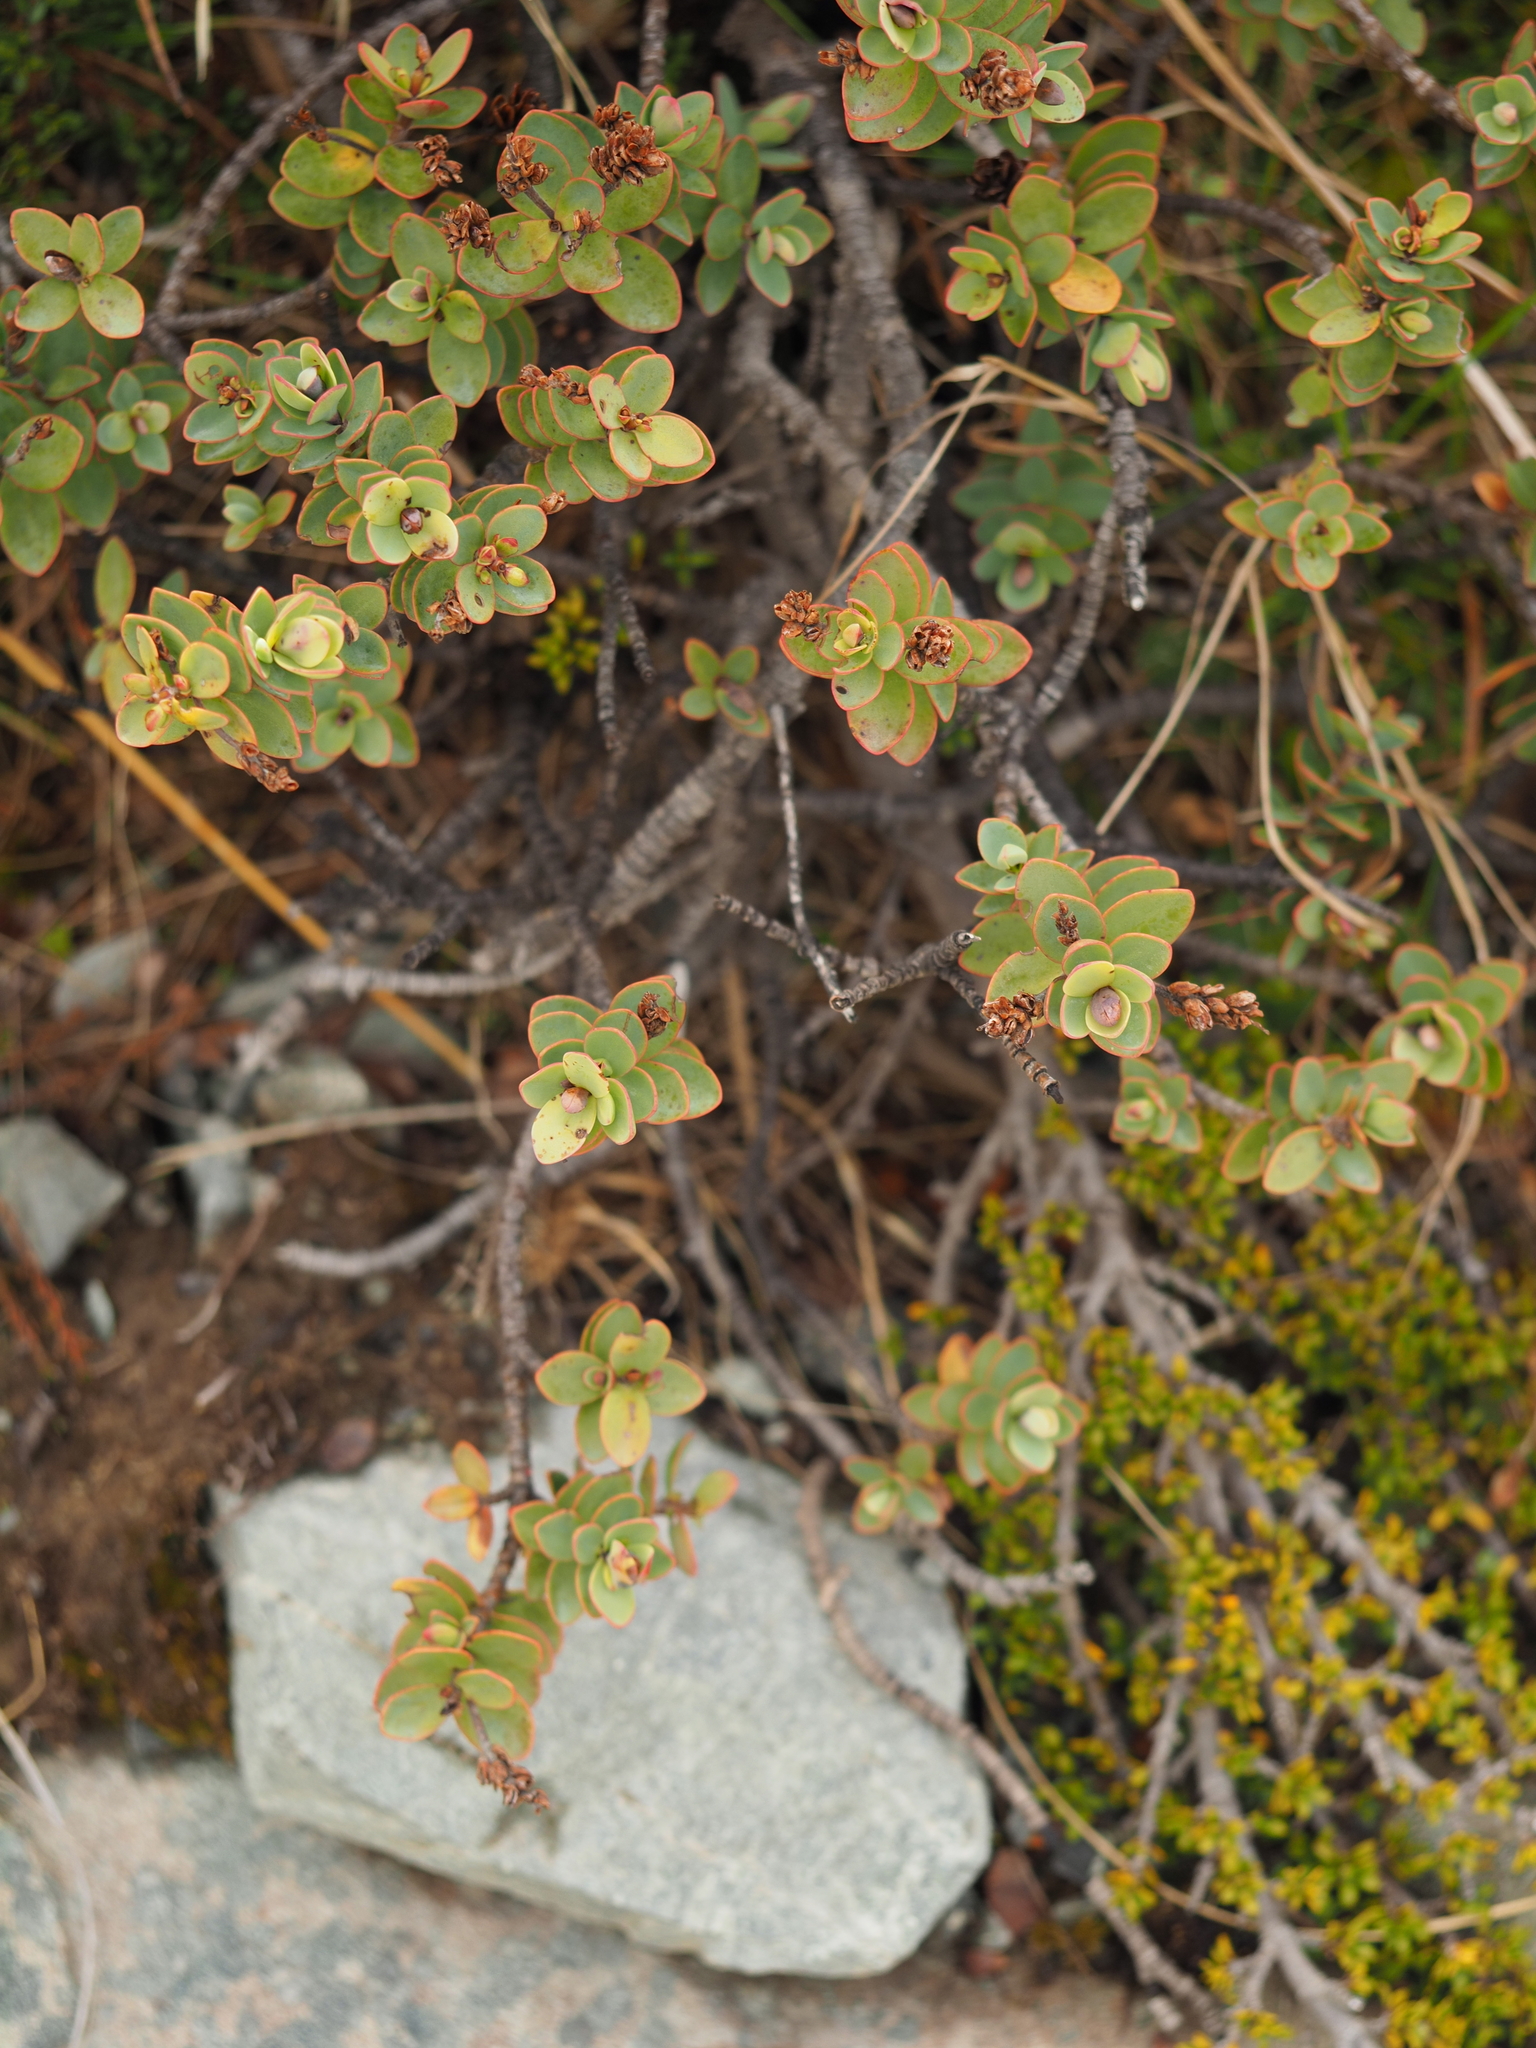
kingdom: Plantae
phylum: Tracheophyta
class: Magnoliopsida
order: Lamiales
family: Plantaginaceae
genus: Veronica
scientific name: Veronica pinguifolia
